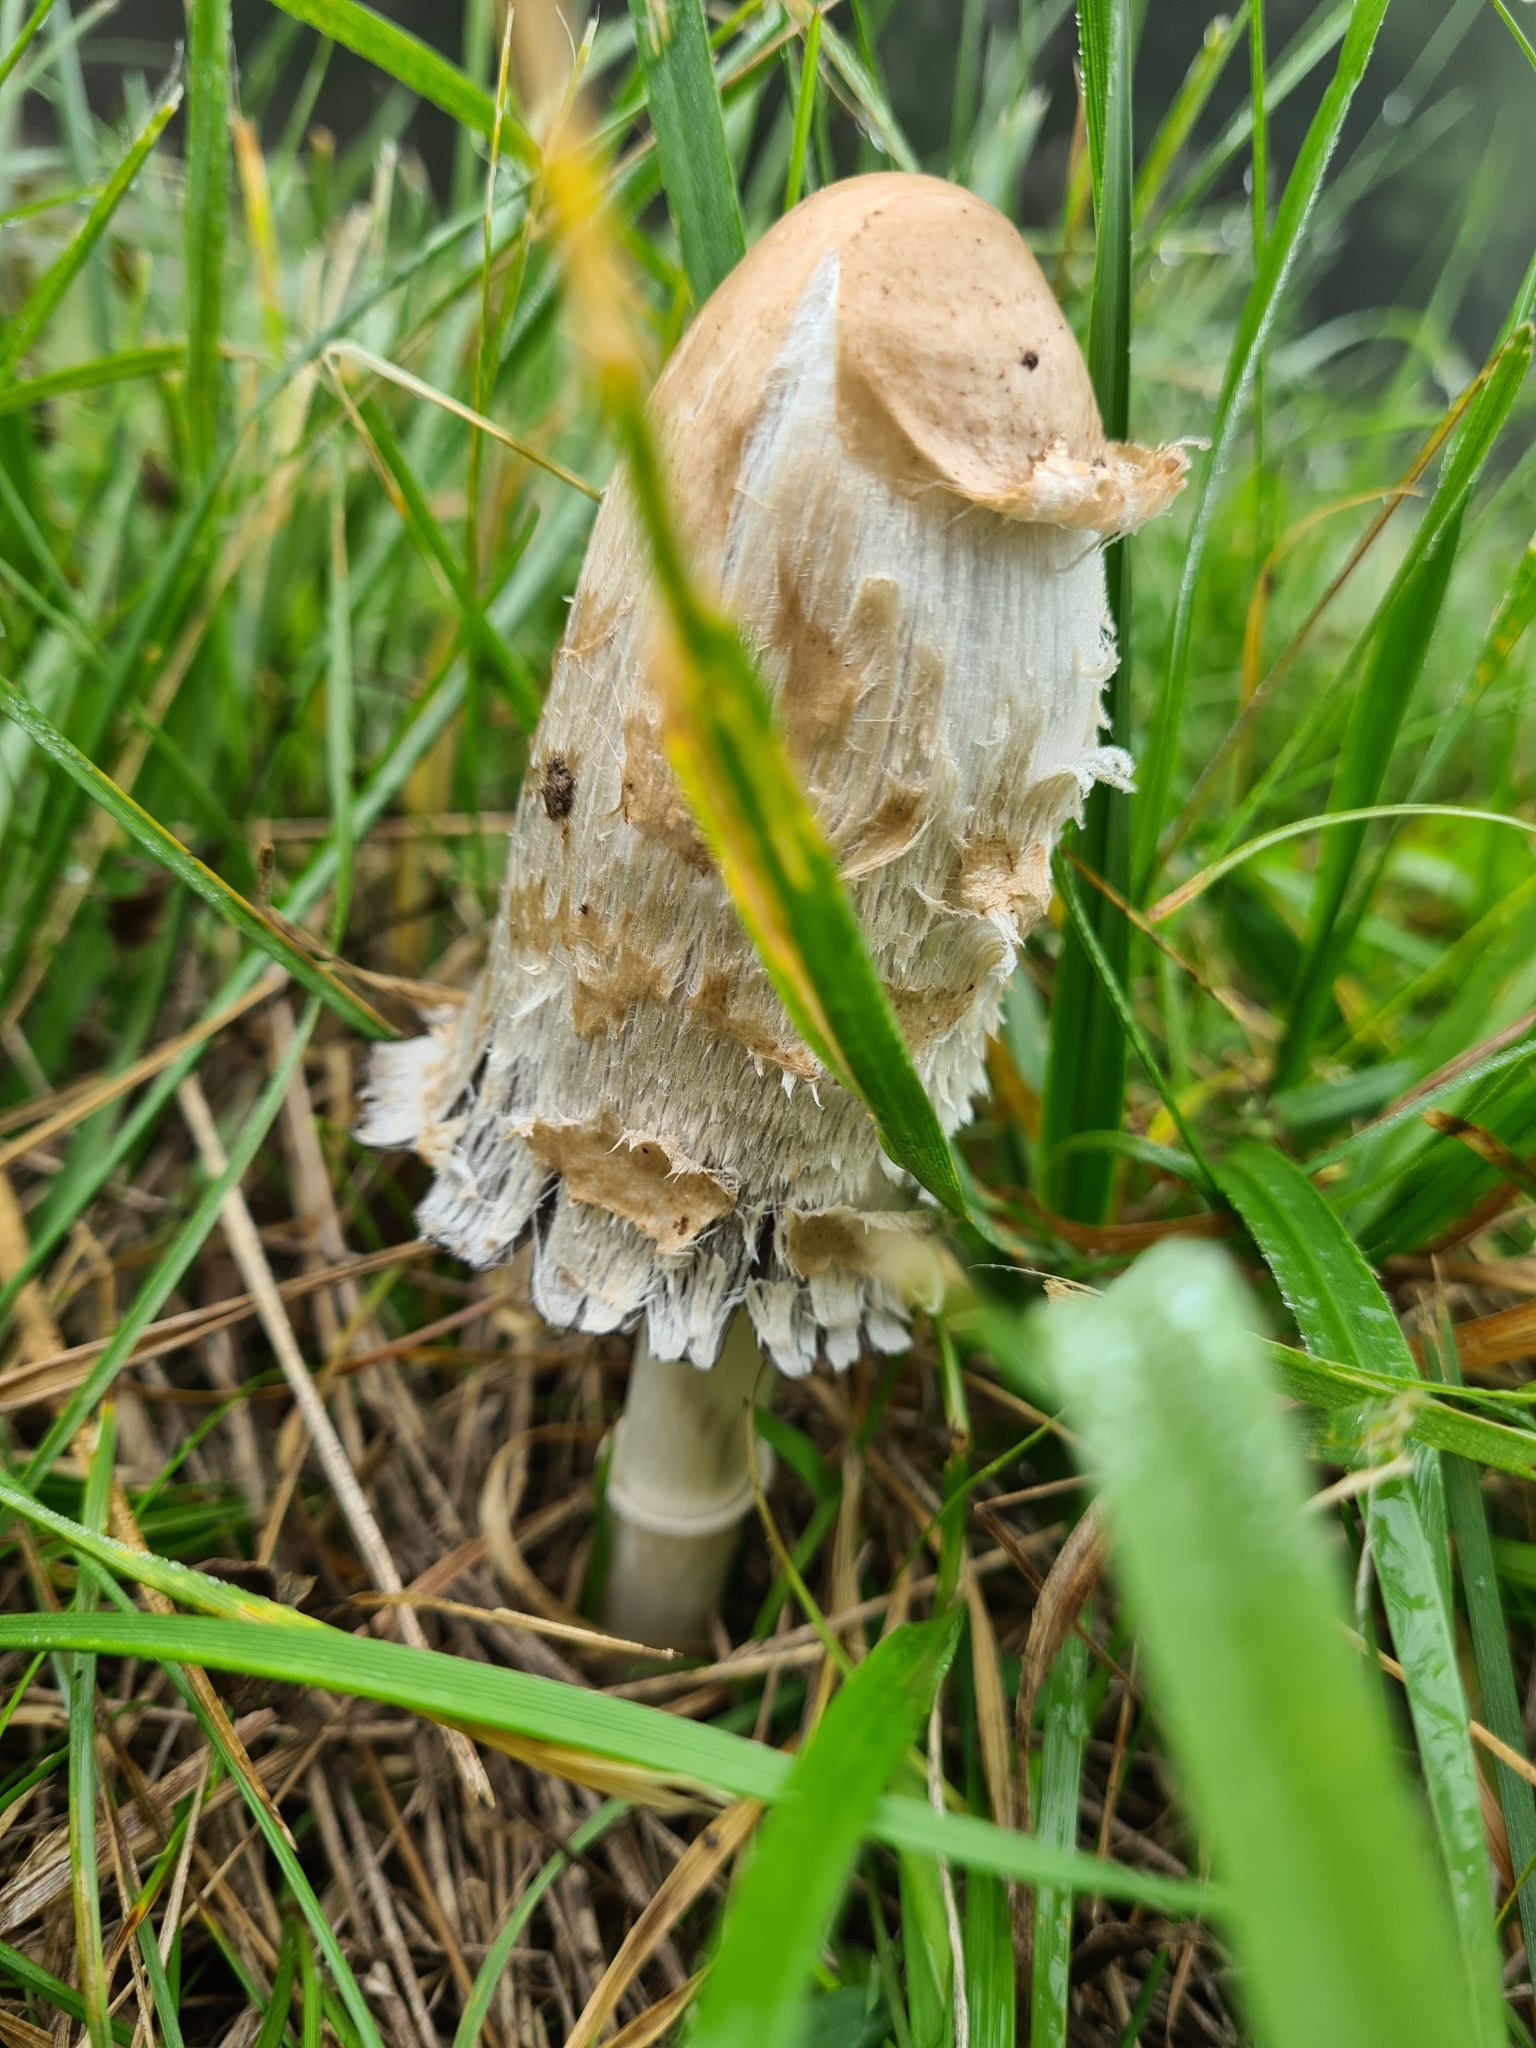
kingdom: Fungi
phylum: Basidiomycota
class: Agaricomycetes
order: Agaricales
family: Agaricaceae
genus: Coprinus
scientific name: Coprinus comatus
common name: Lawyer's wig
